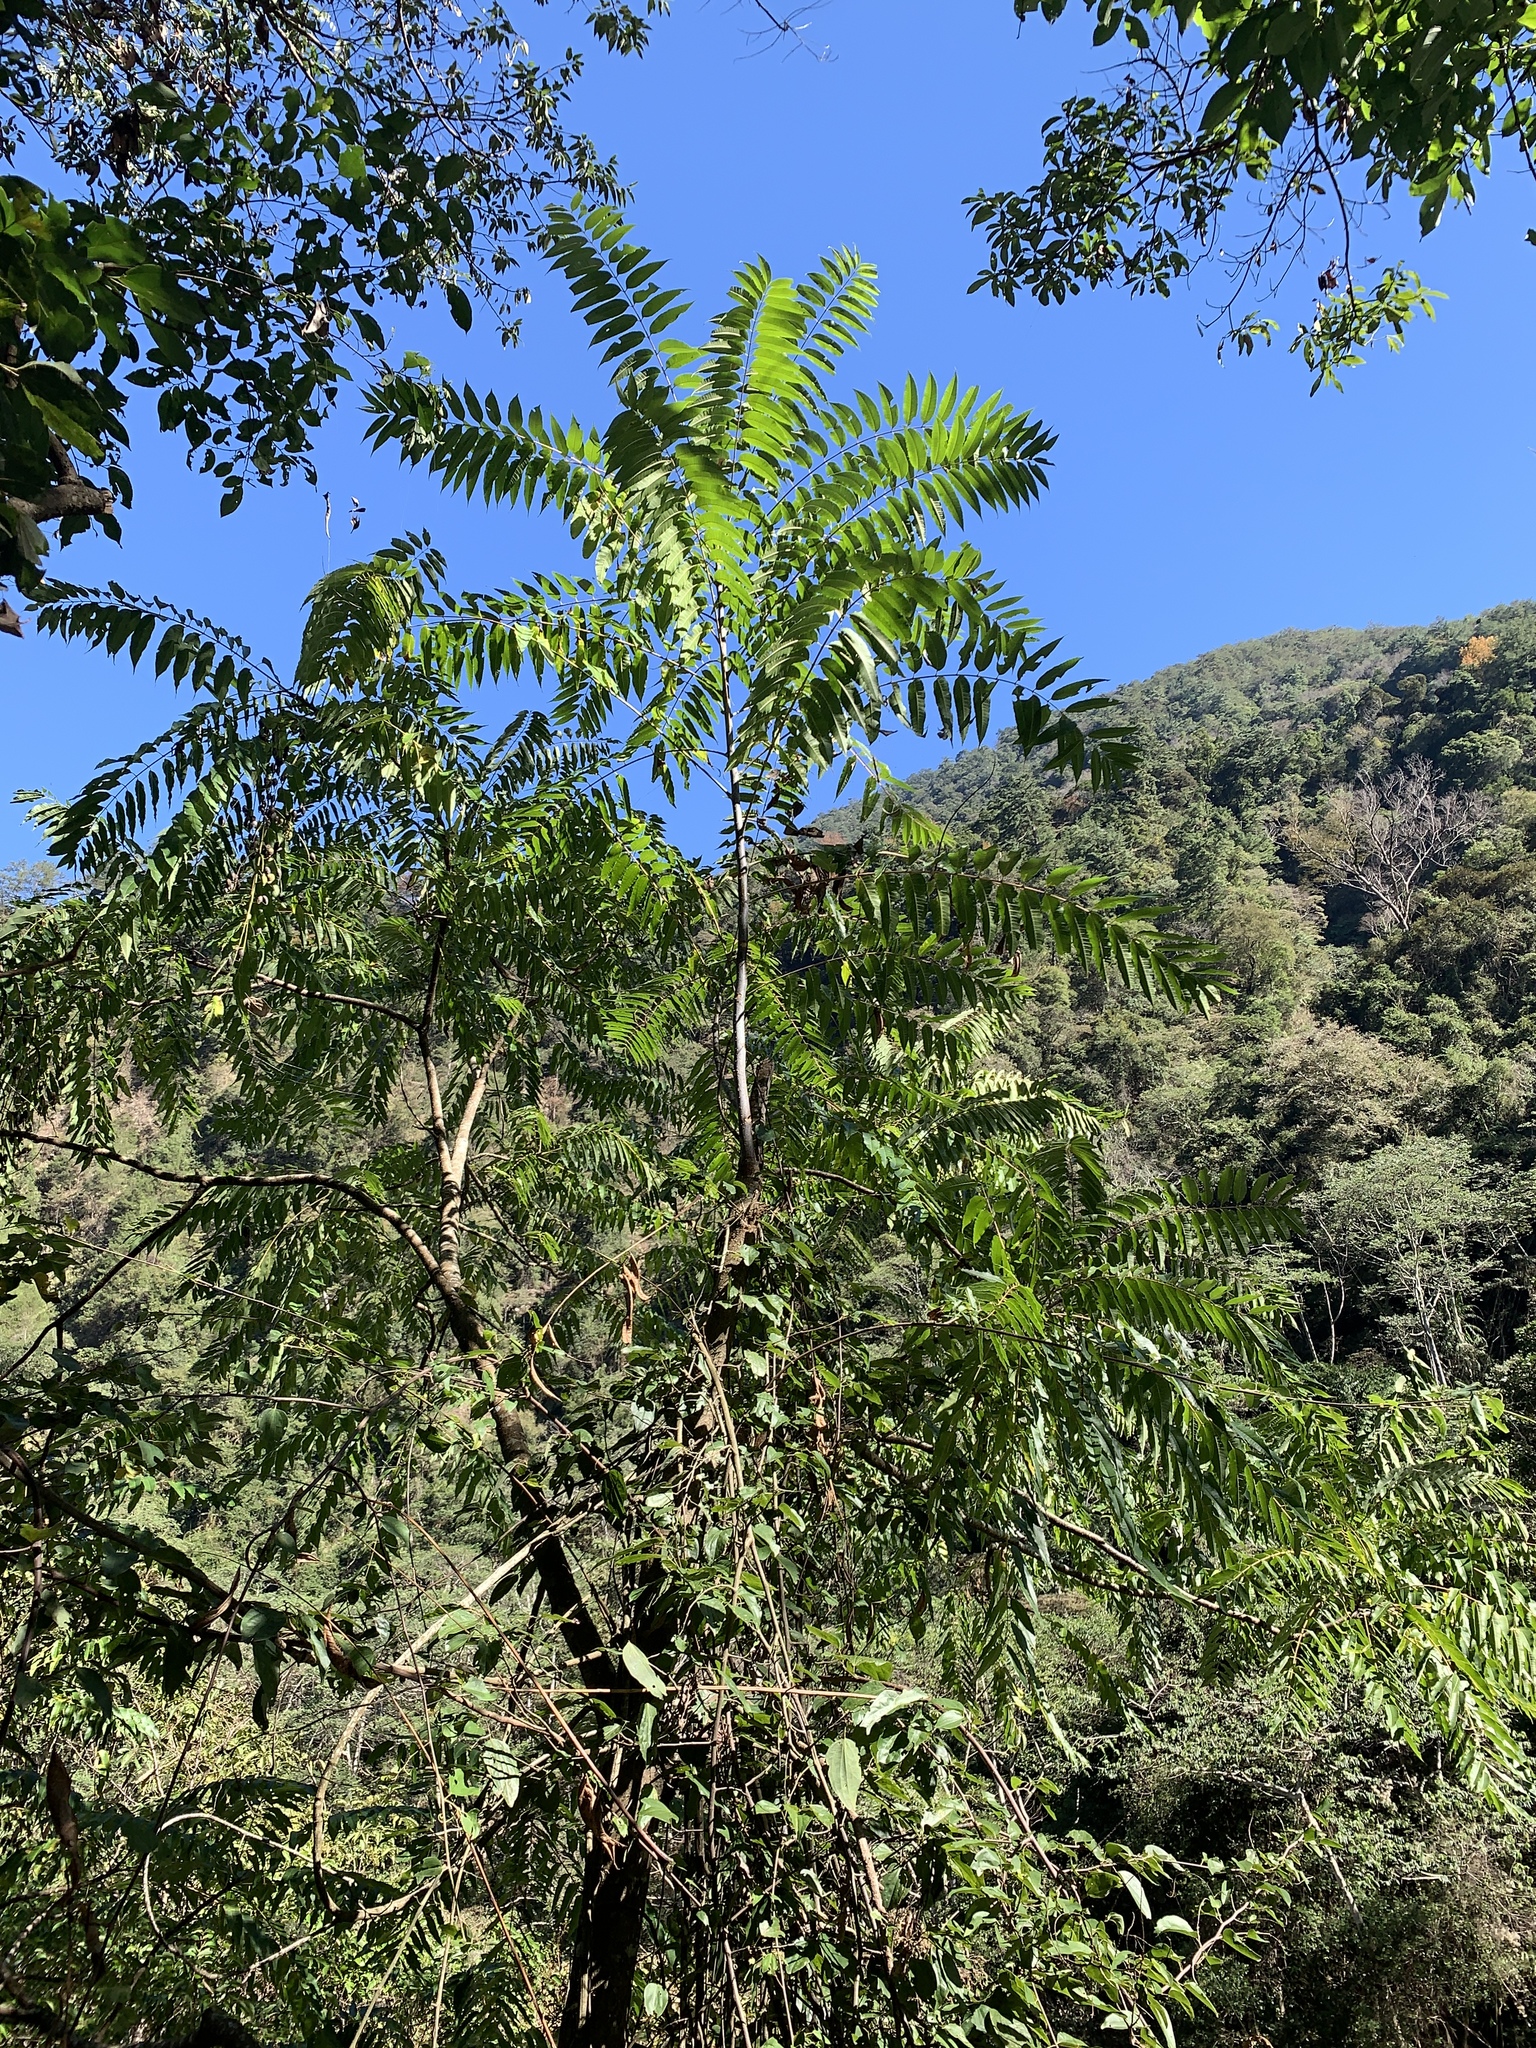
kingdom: Plantae
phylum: Tracheophyta
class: Magnoliopsida
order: Sapindales
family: Meliaceae
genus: Toona
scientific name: Toona sinensis
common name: Red toon
